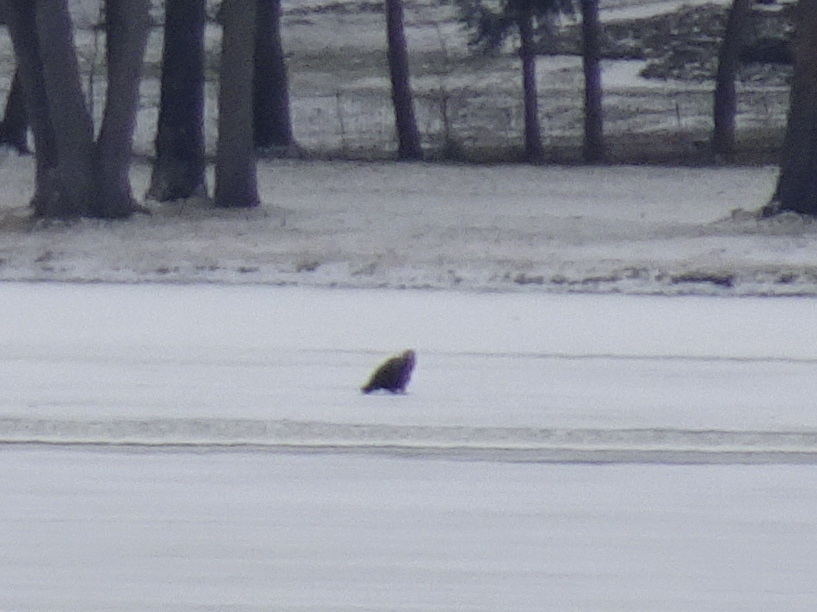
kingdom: Animalia
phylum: Chordata
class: Aves
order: Accipitriformes
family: Accipitridae
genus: Haliaeetus
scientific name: Haliaeetus leucocephalus
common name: Bald eagle
